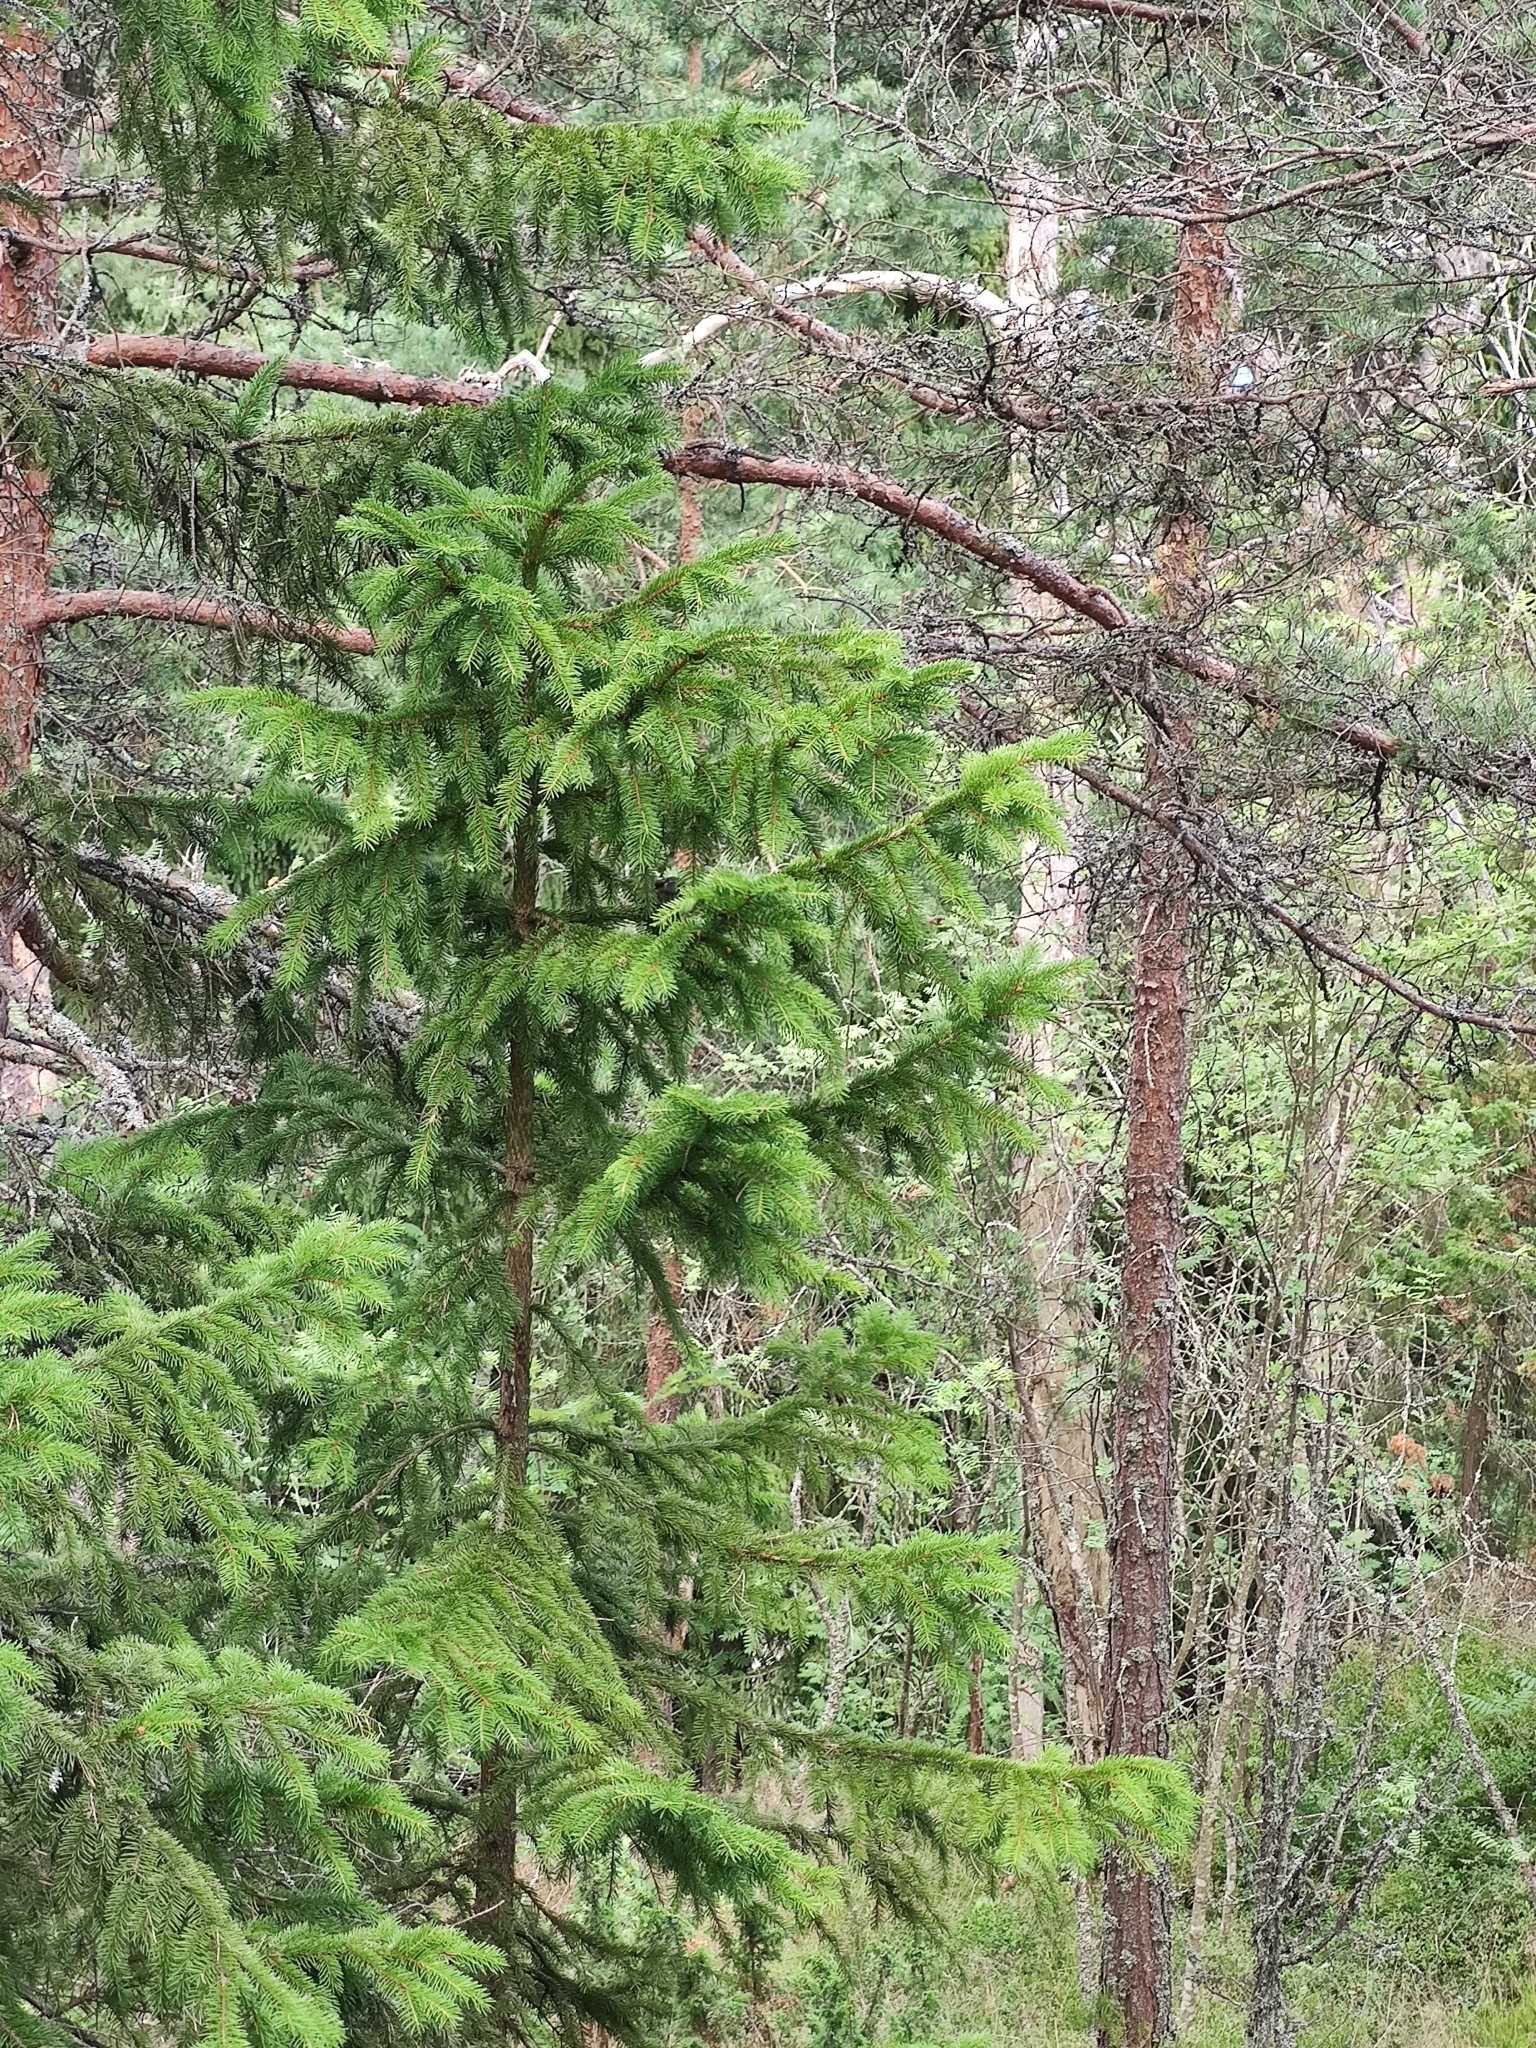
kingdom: Plantae
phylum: Tracheophyta
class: Pinopsida
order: Pinales
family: Pinaceae
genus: Picea
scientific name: Picea abies
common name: Norway spruce
